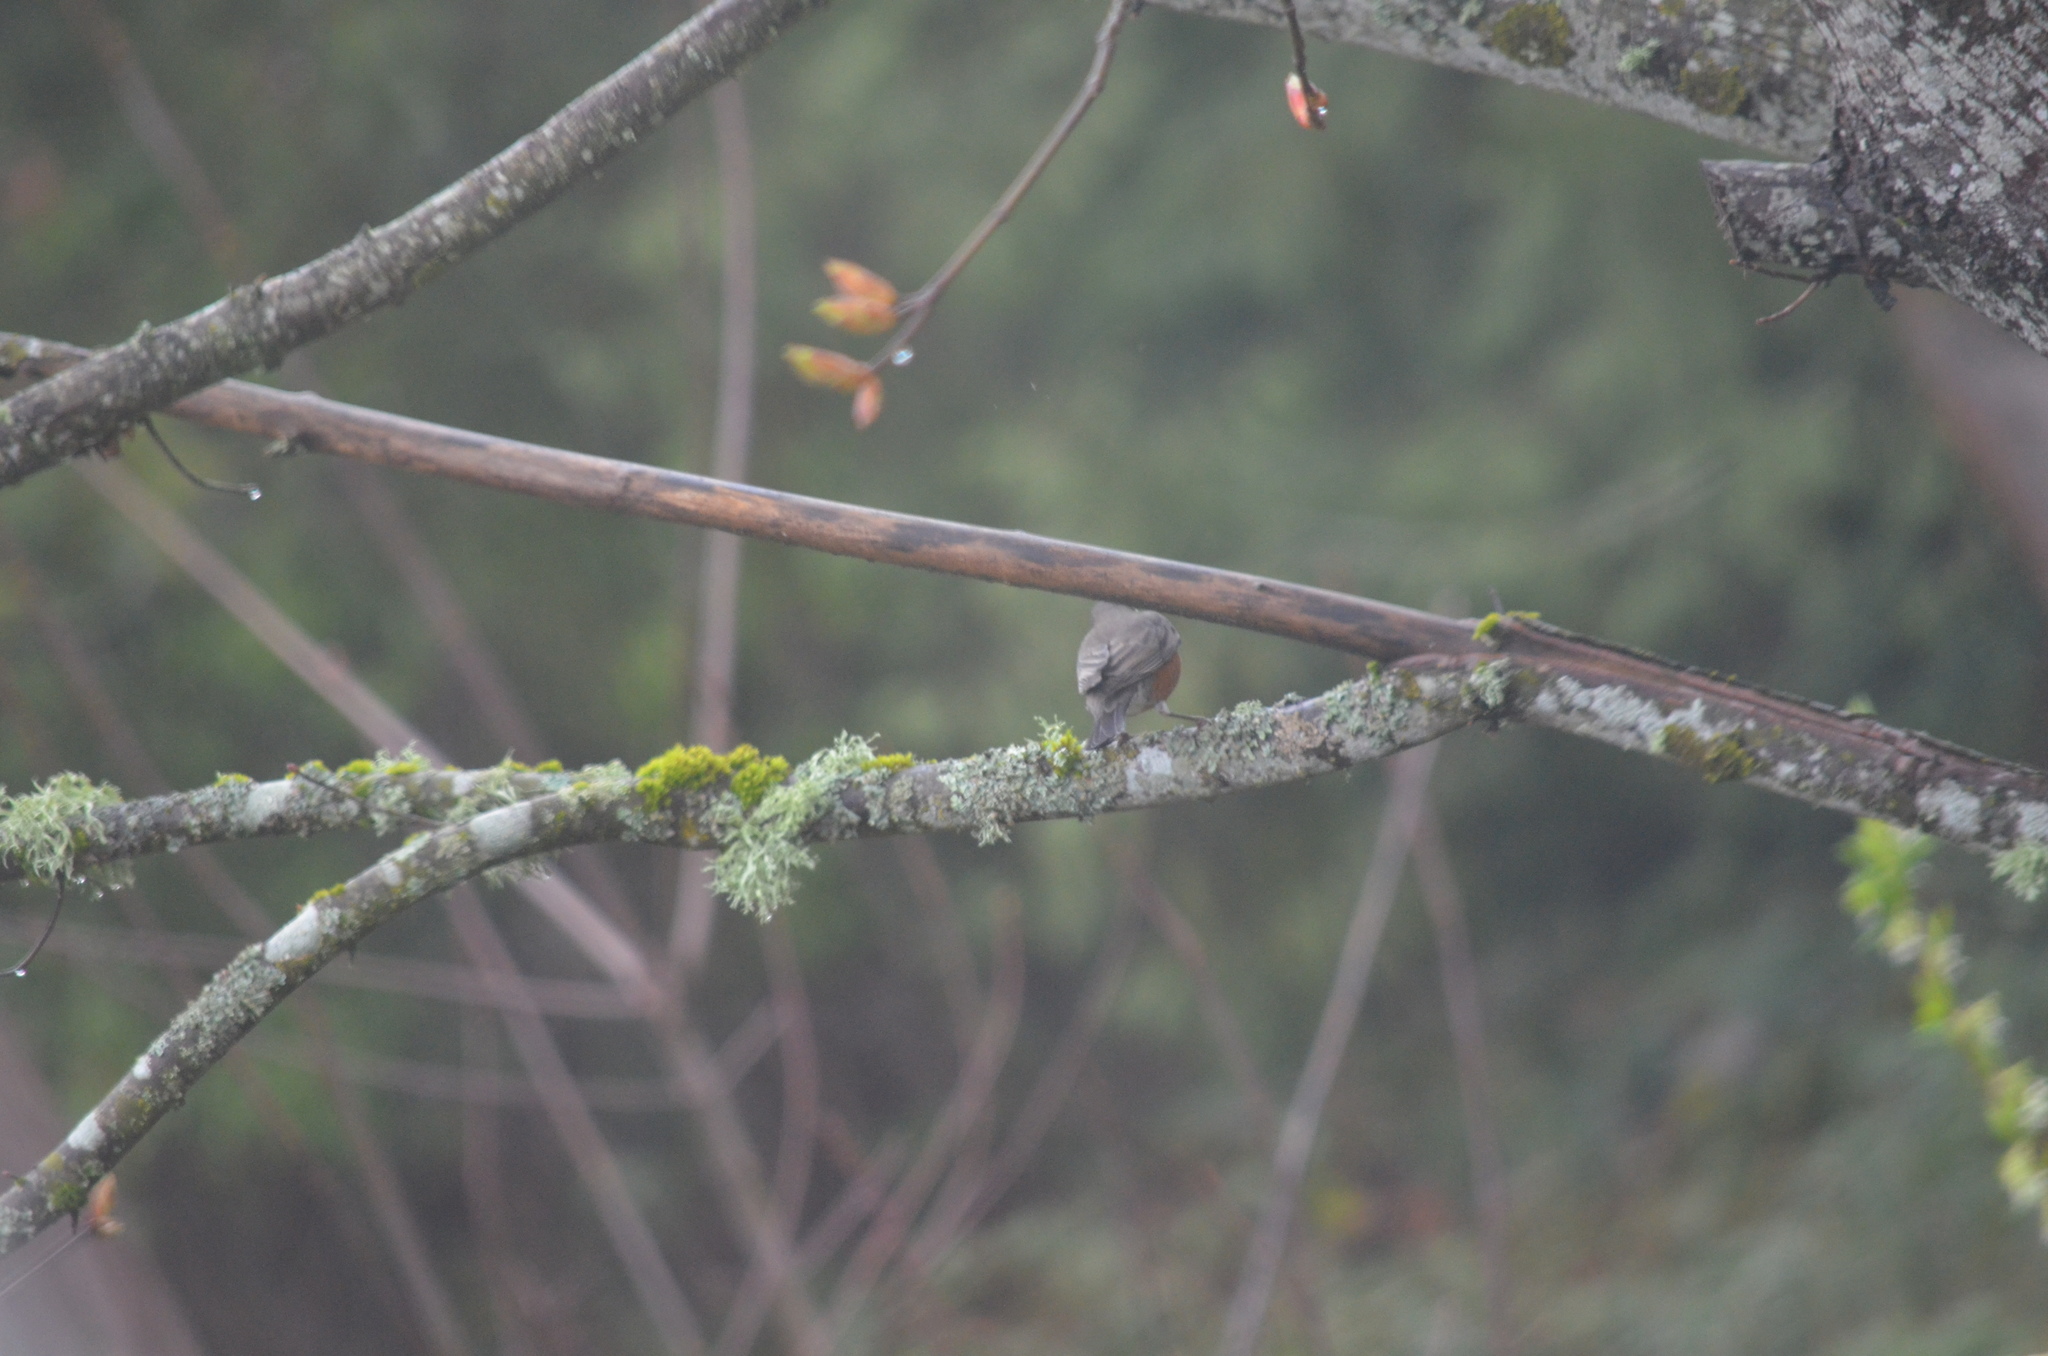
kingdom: Animalia
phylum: Chordata
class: Aves
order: Passeriformes
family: Turdidae
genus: Turdus
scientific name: Turdus migratorius
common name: American robin
